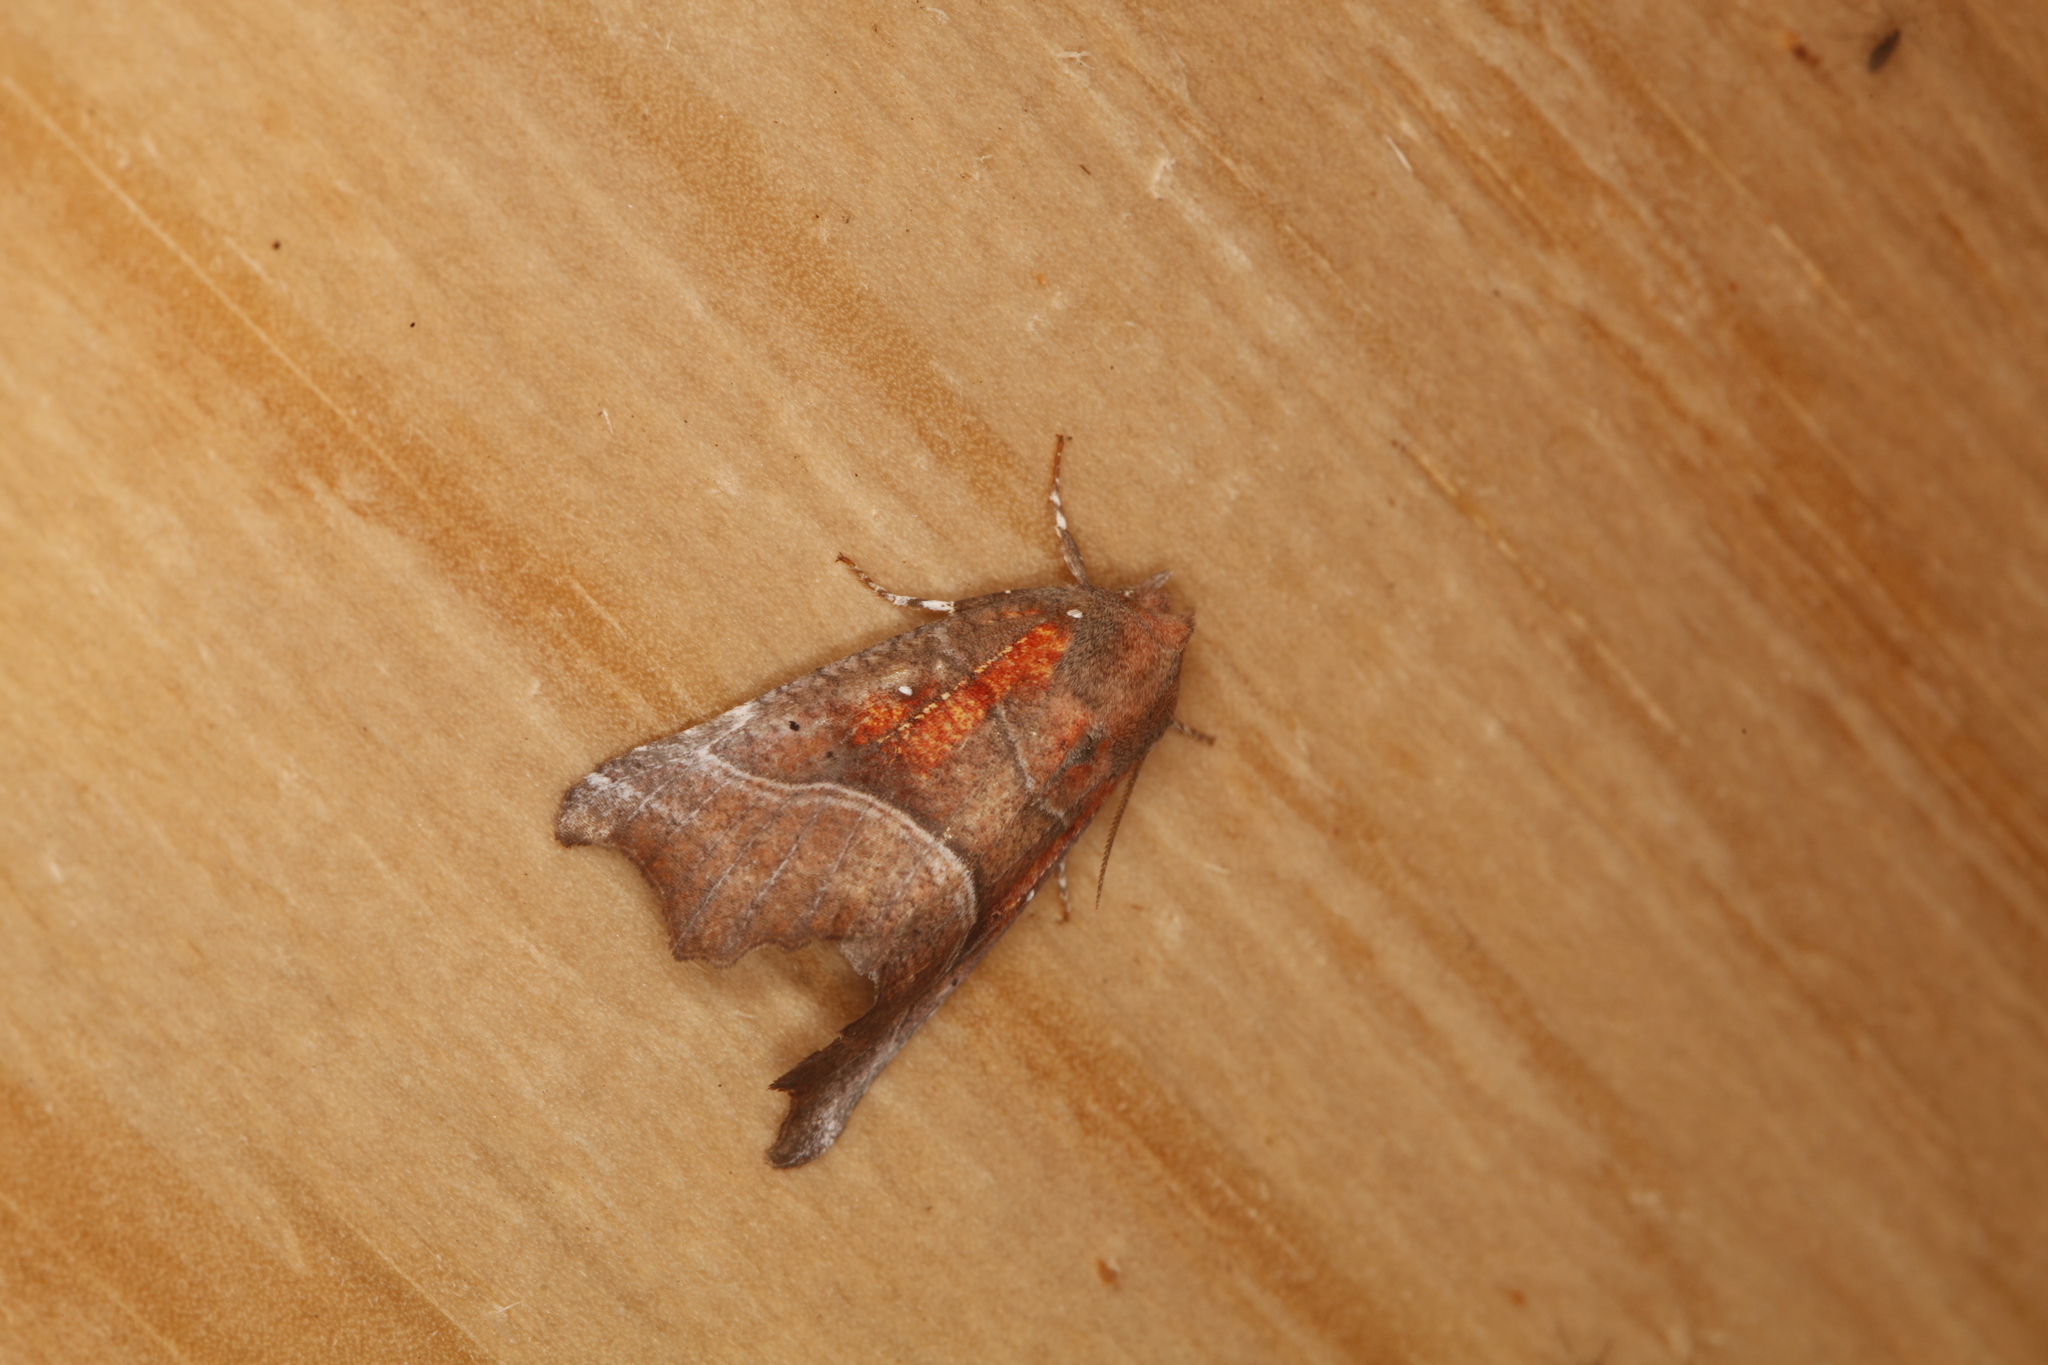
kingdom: Animalia
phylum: Arthropoda
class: Insecta
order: Lepidoptera
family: Erebidae
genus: Scoliopteryx
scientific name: Scoliopteryx libatrix
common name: Herald
